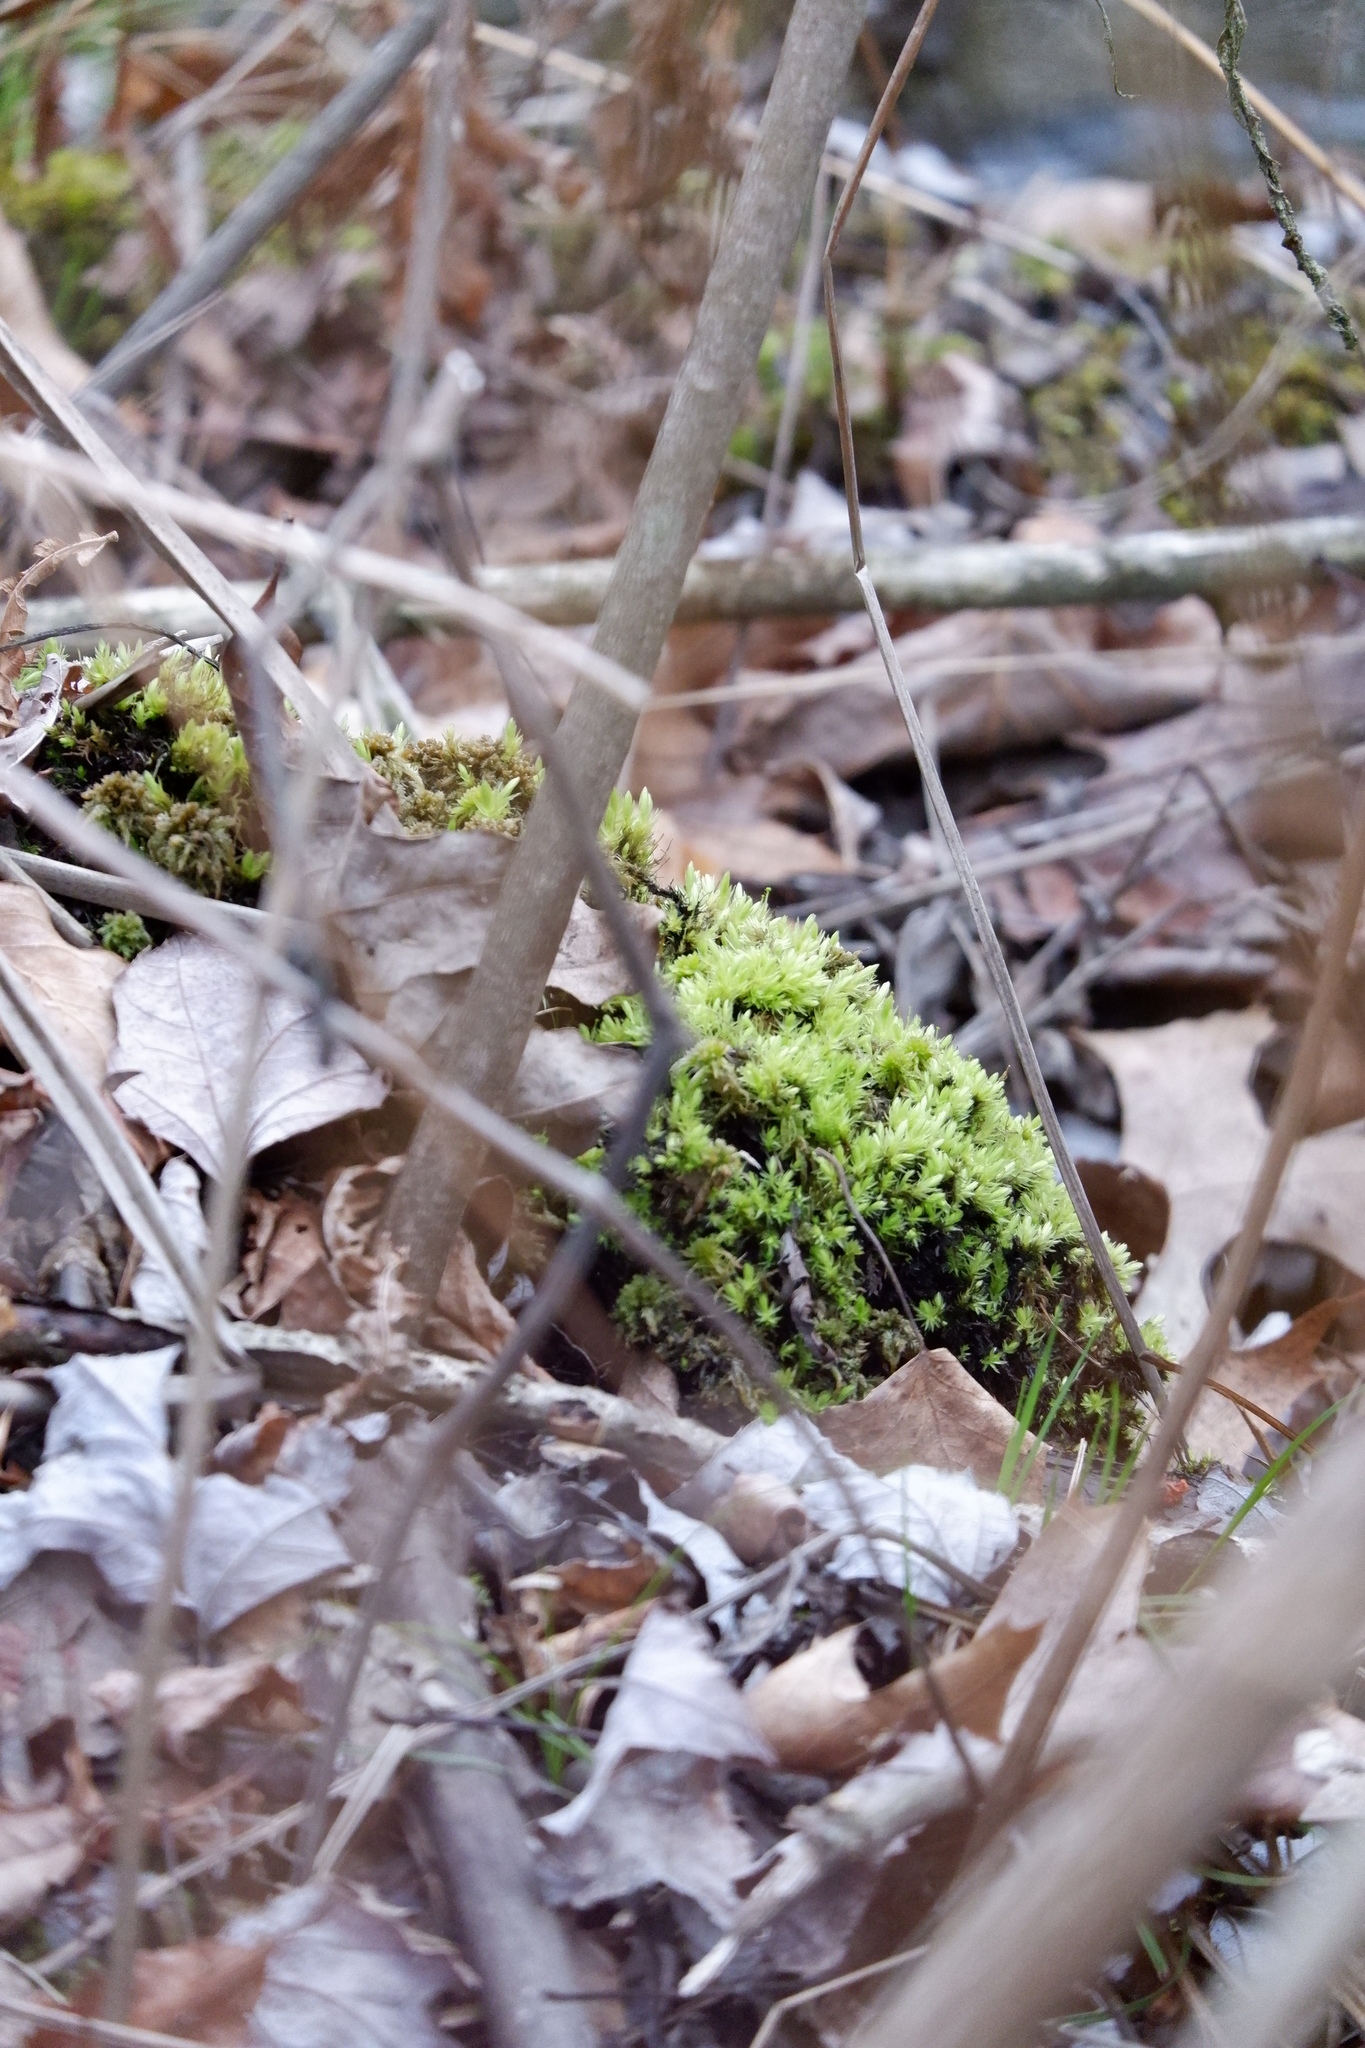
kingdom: Plantae
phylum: Bryophyta
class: Bryopsida
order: Aulacomniales
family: Aulacomniaceae
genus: Aulacomnium
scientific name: Aulacomnium palustre
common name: Bog groove-moss
